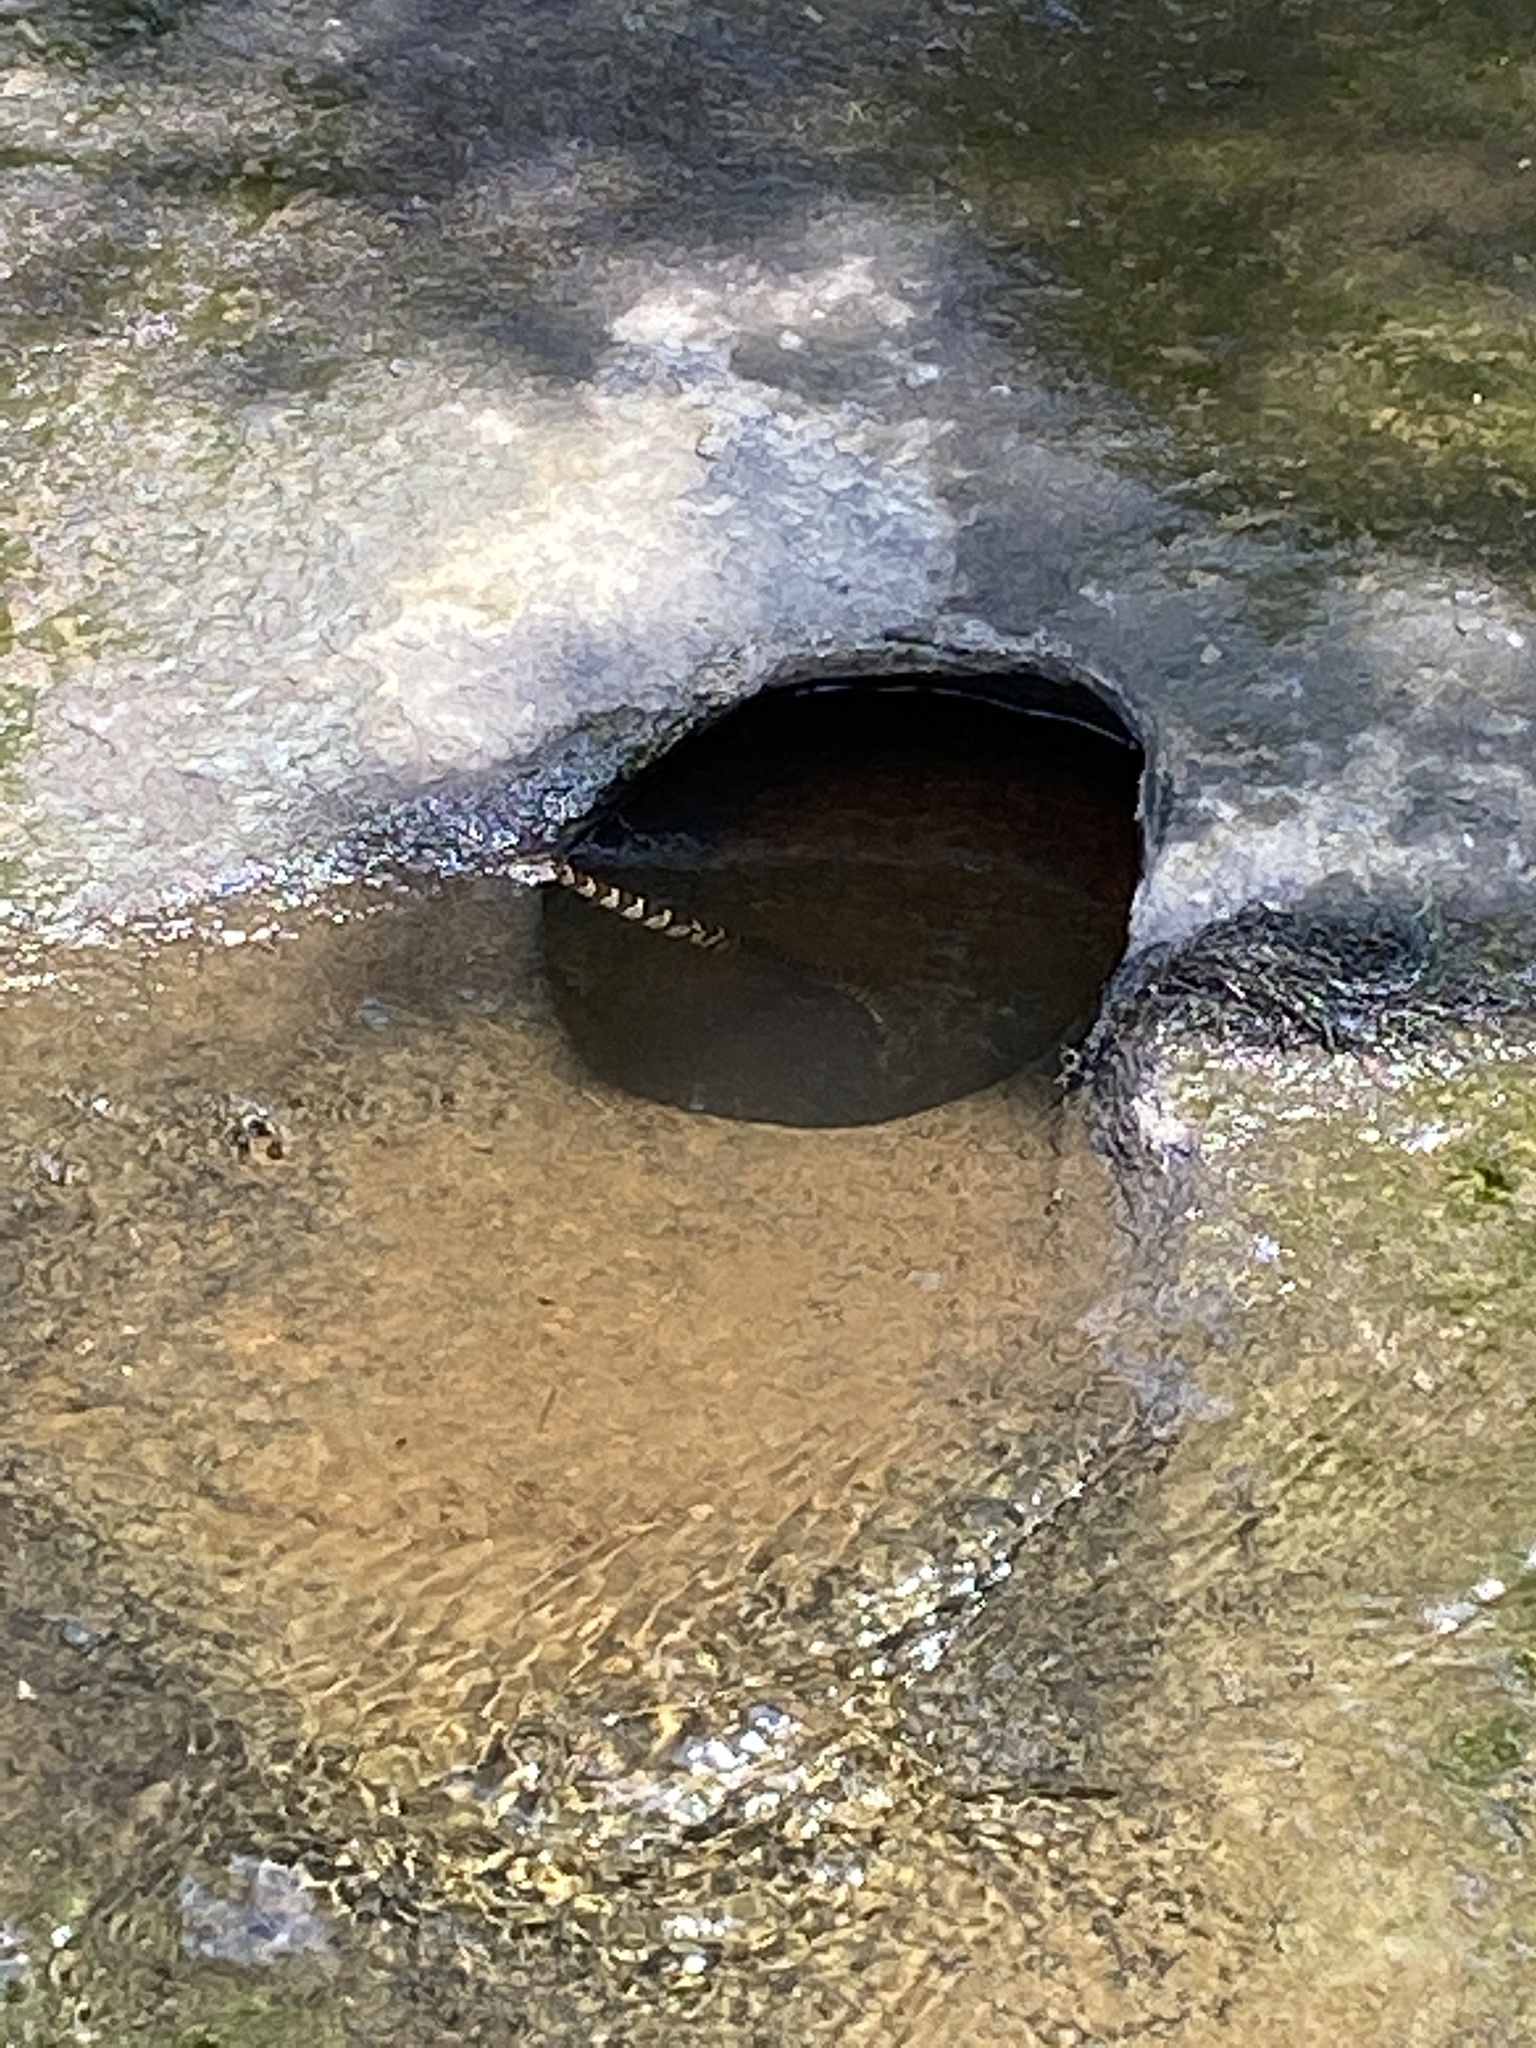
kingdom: Animalia
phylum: Chordata
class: Squamata
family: Colubridae
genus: Nerodia
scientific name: Nerodia sipedon
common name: Northern water snake
